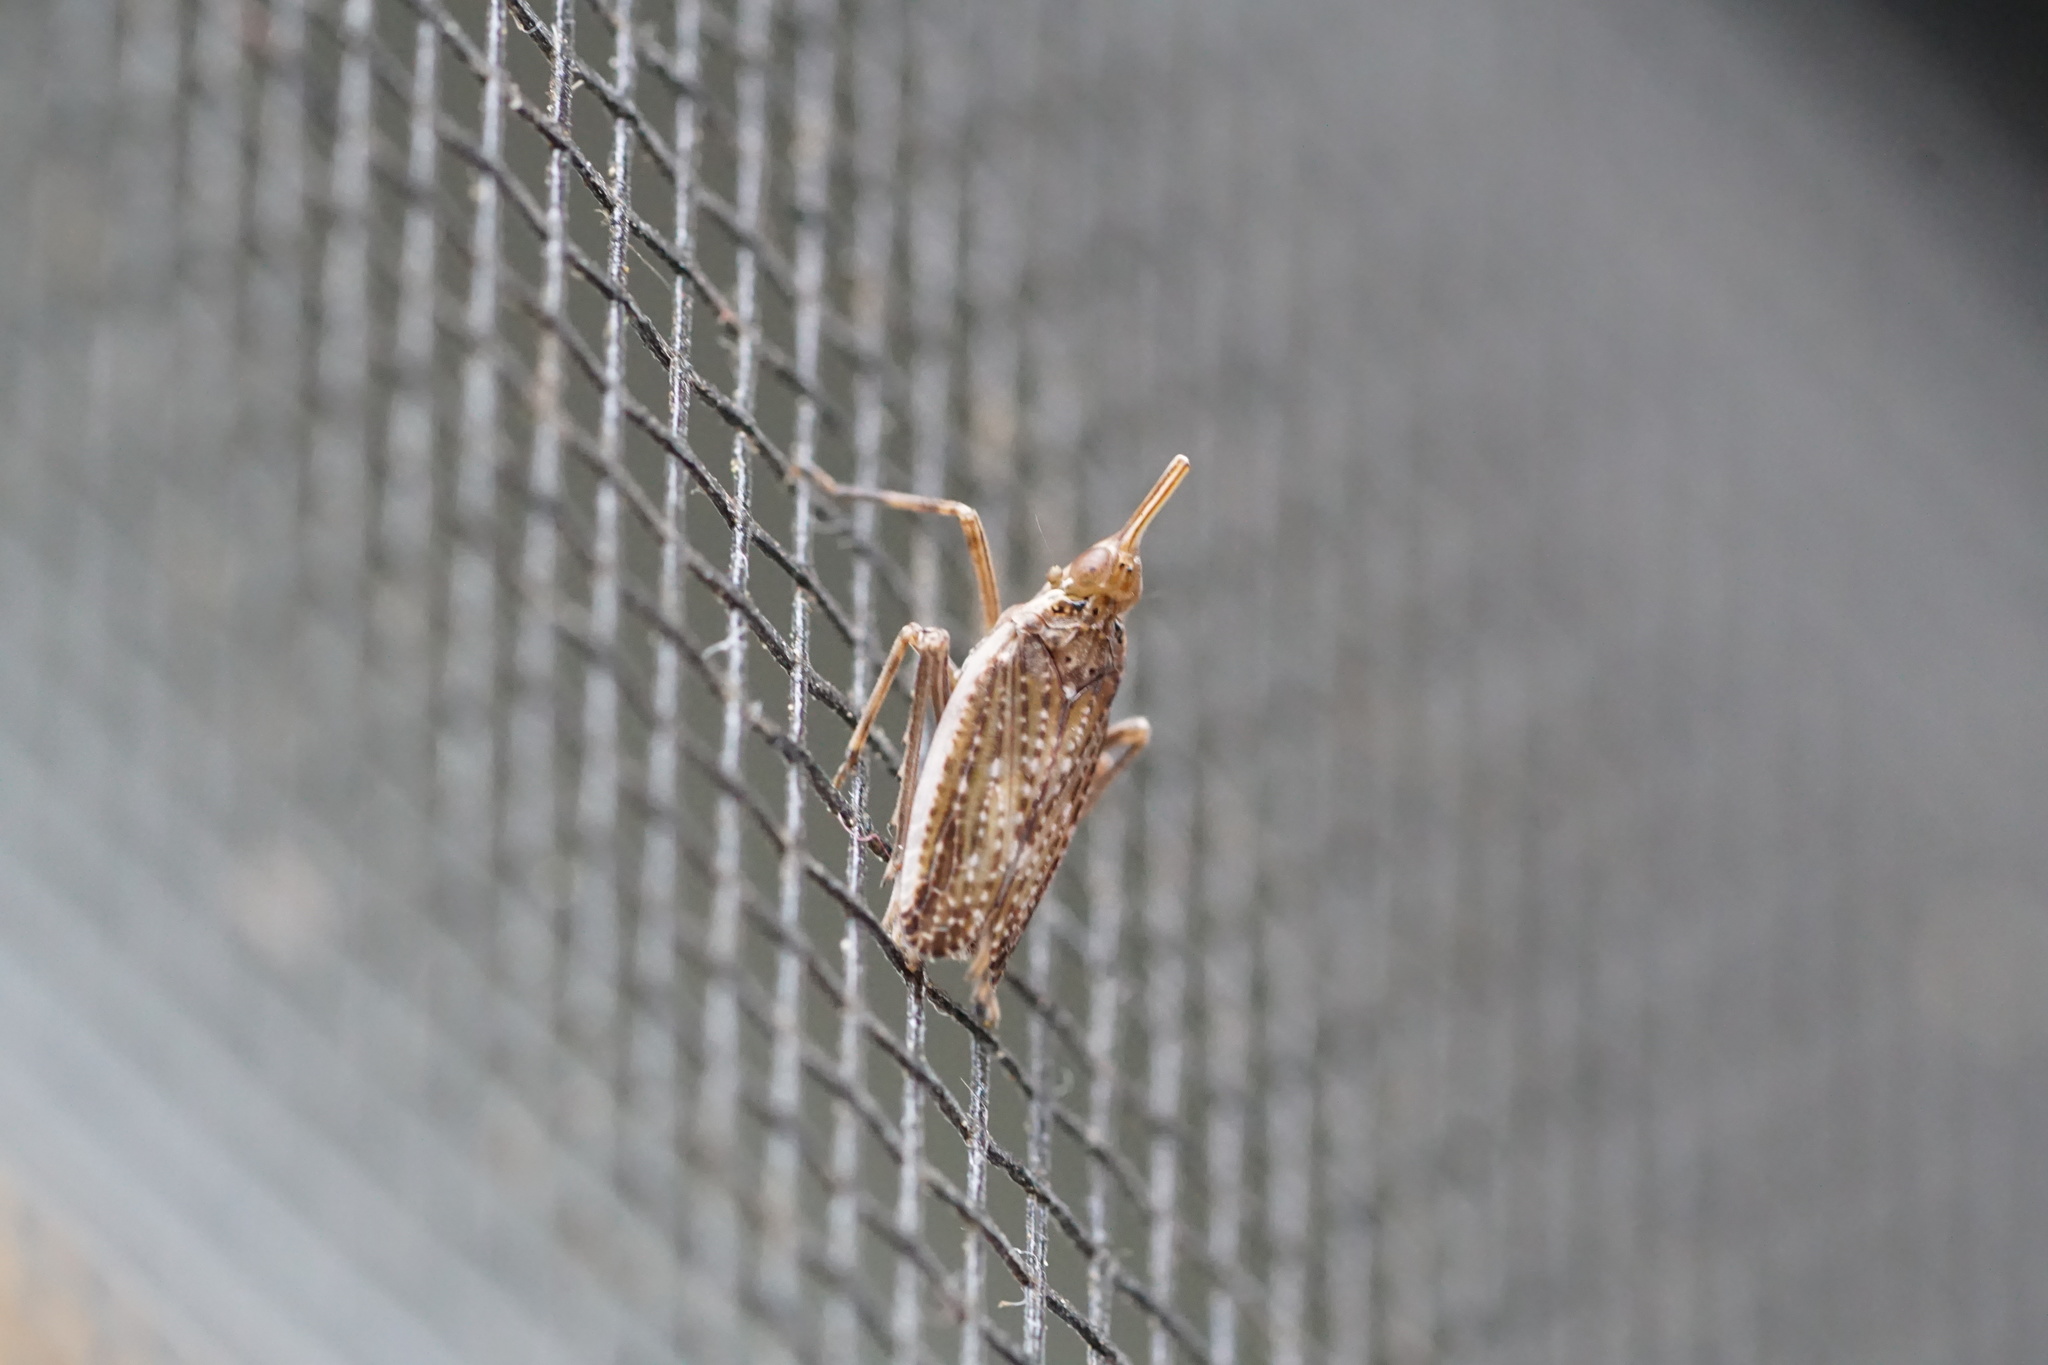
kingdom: Animalia
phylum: Arthropoda
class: Insecta
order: Hemiptera
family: Dictyopharidae
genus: Scolops
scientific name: Scolops angustatus
